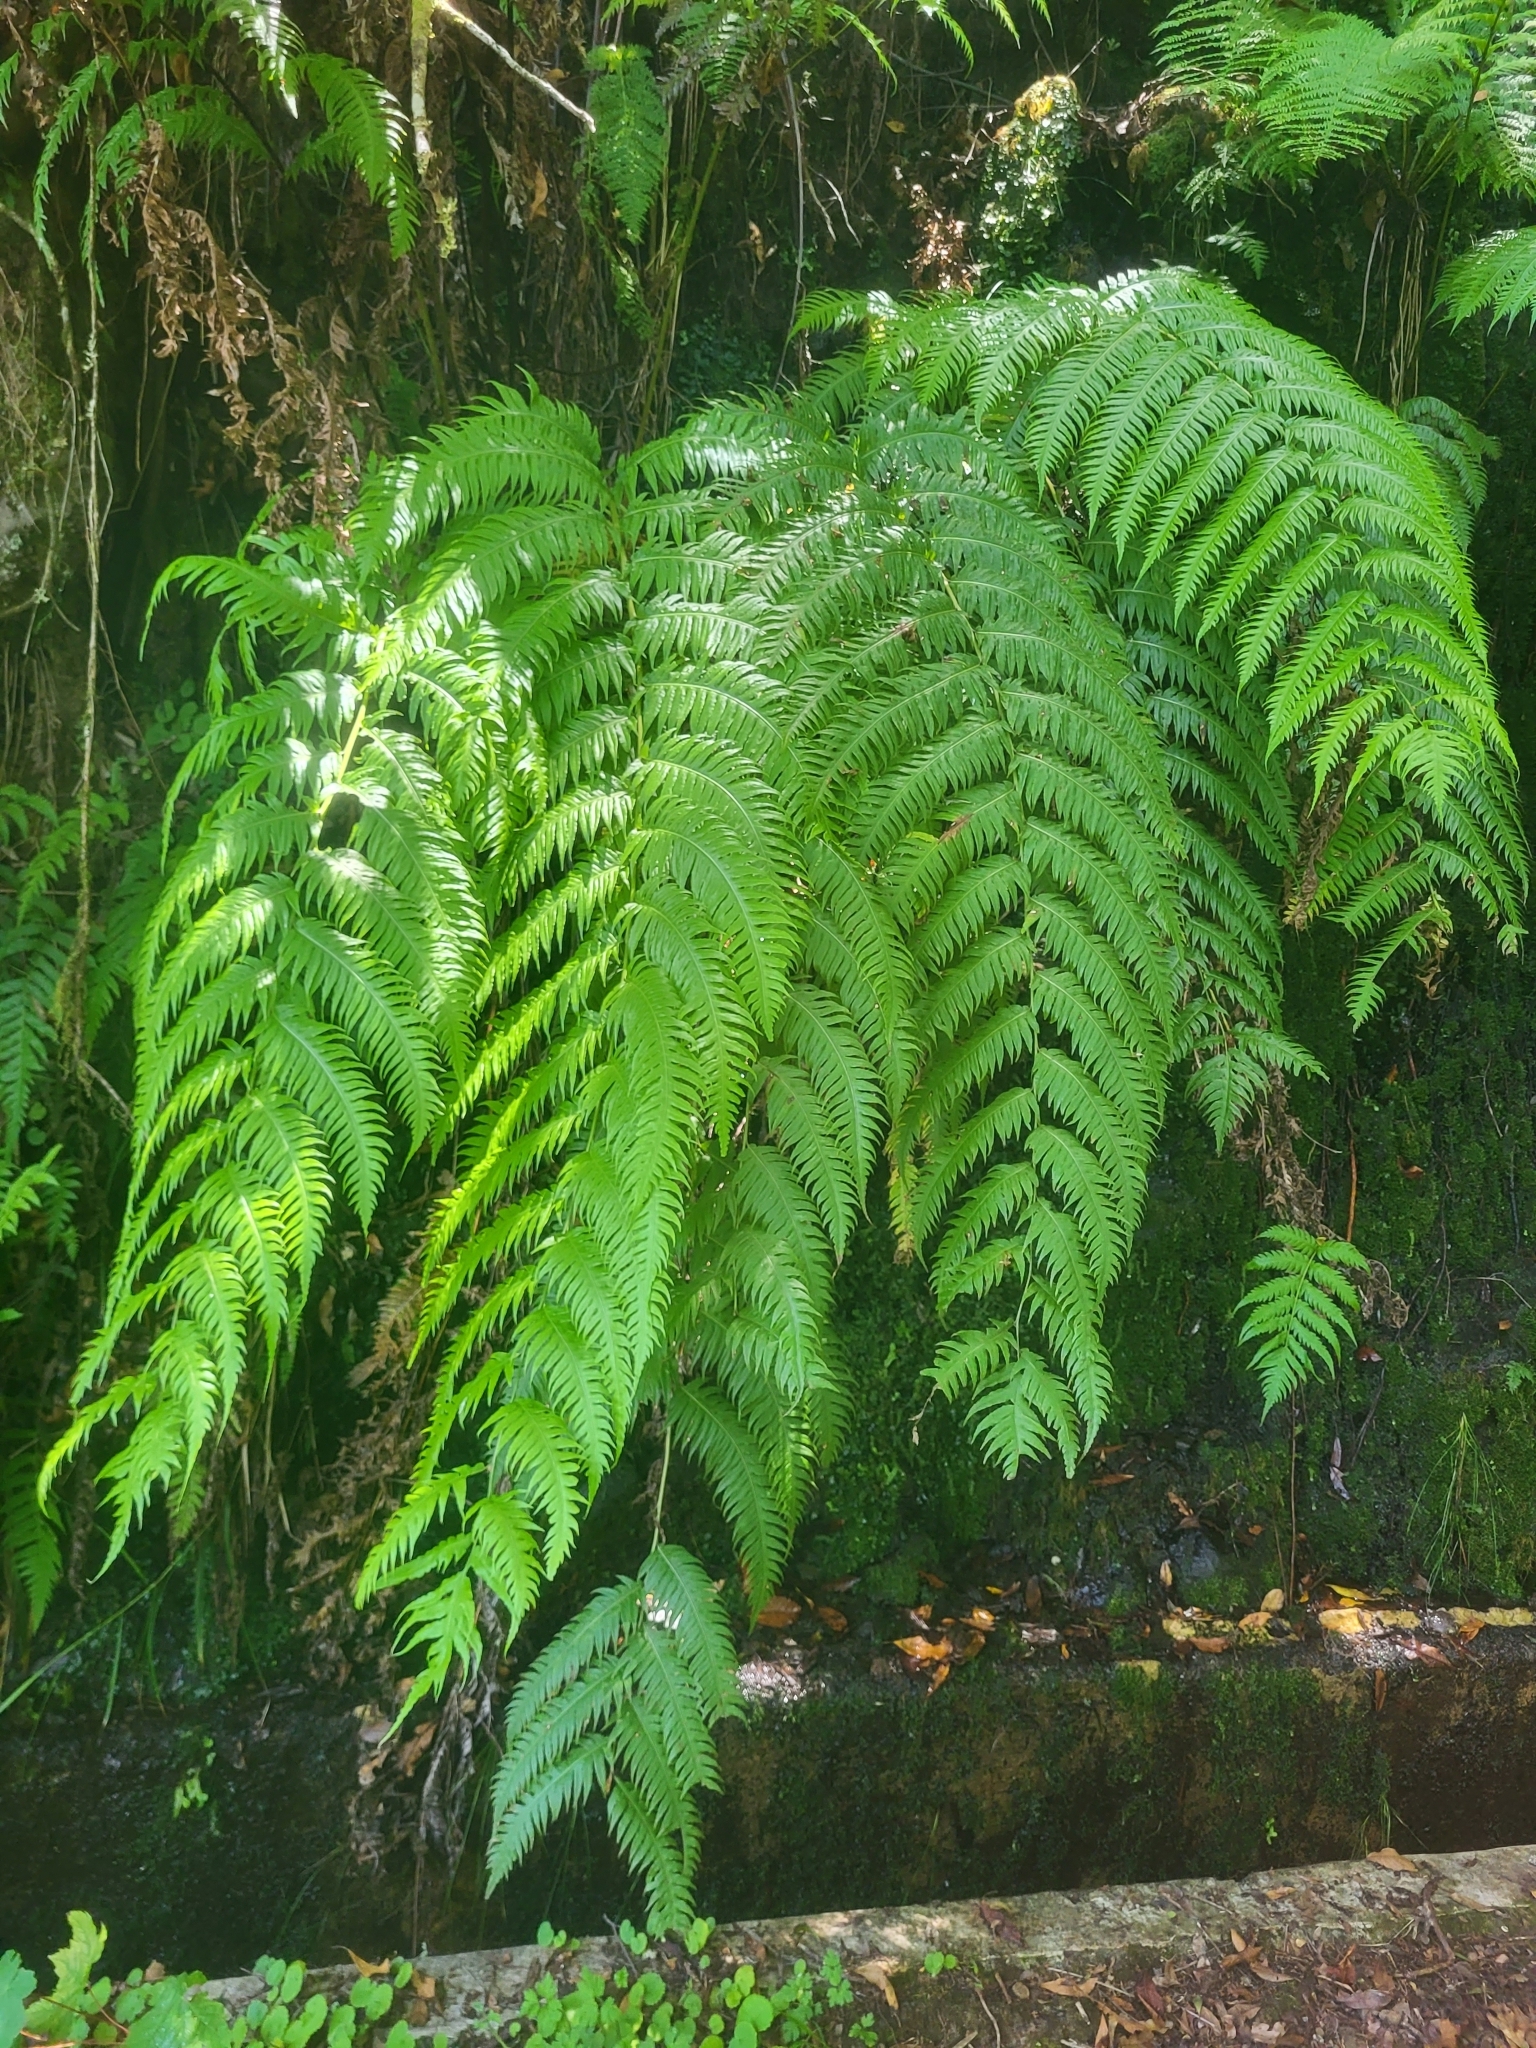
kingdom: Plantae
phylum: Tracheophyta
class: Polypodiopsida
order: Polypodiales
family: Blechnaceae
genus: Woodwardia
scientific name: Woodwardia radicans
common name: Rooting chainfern
